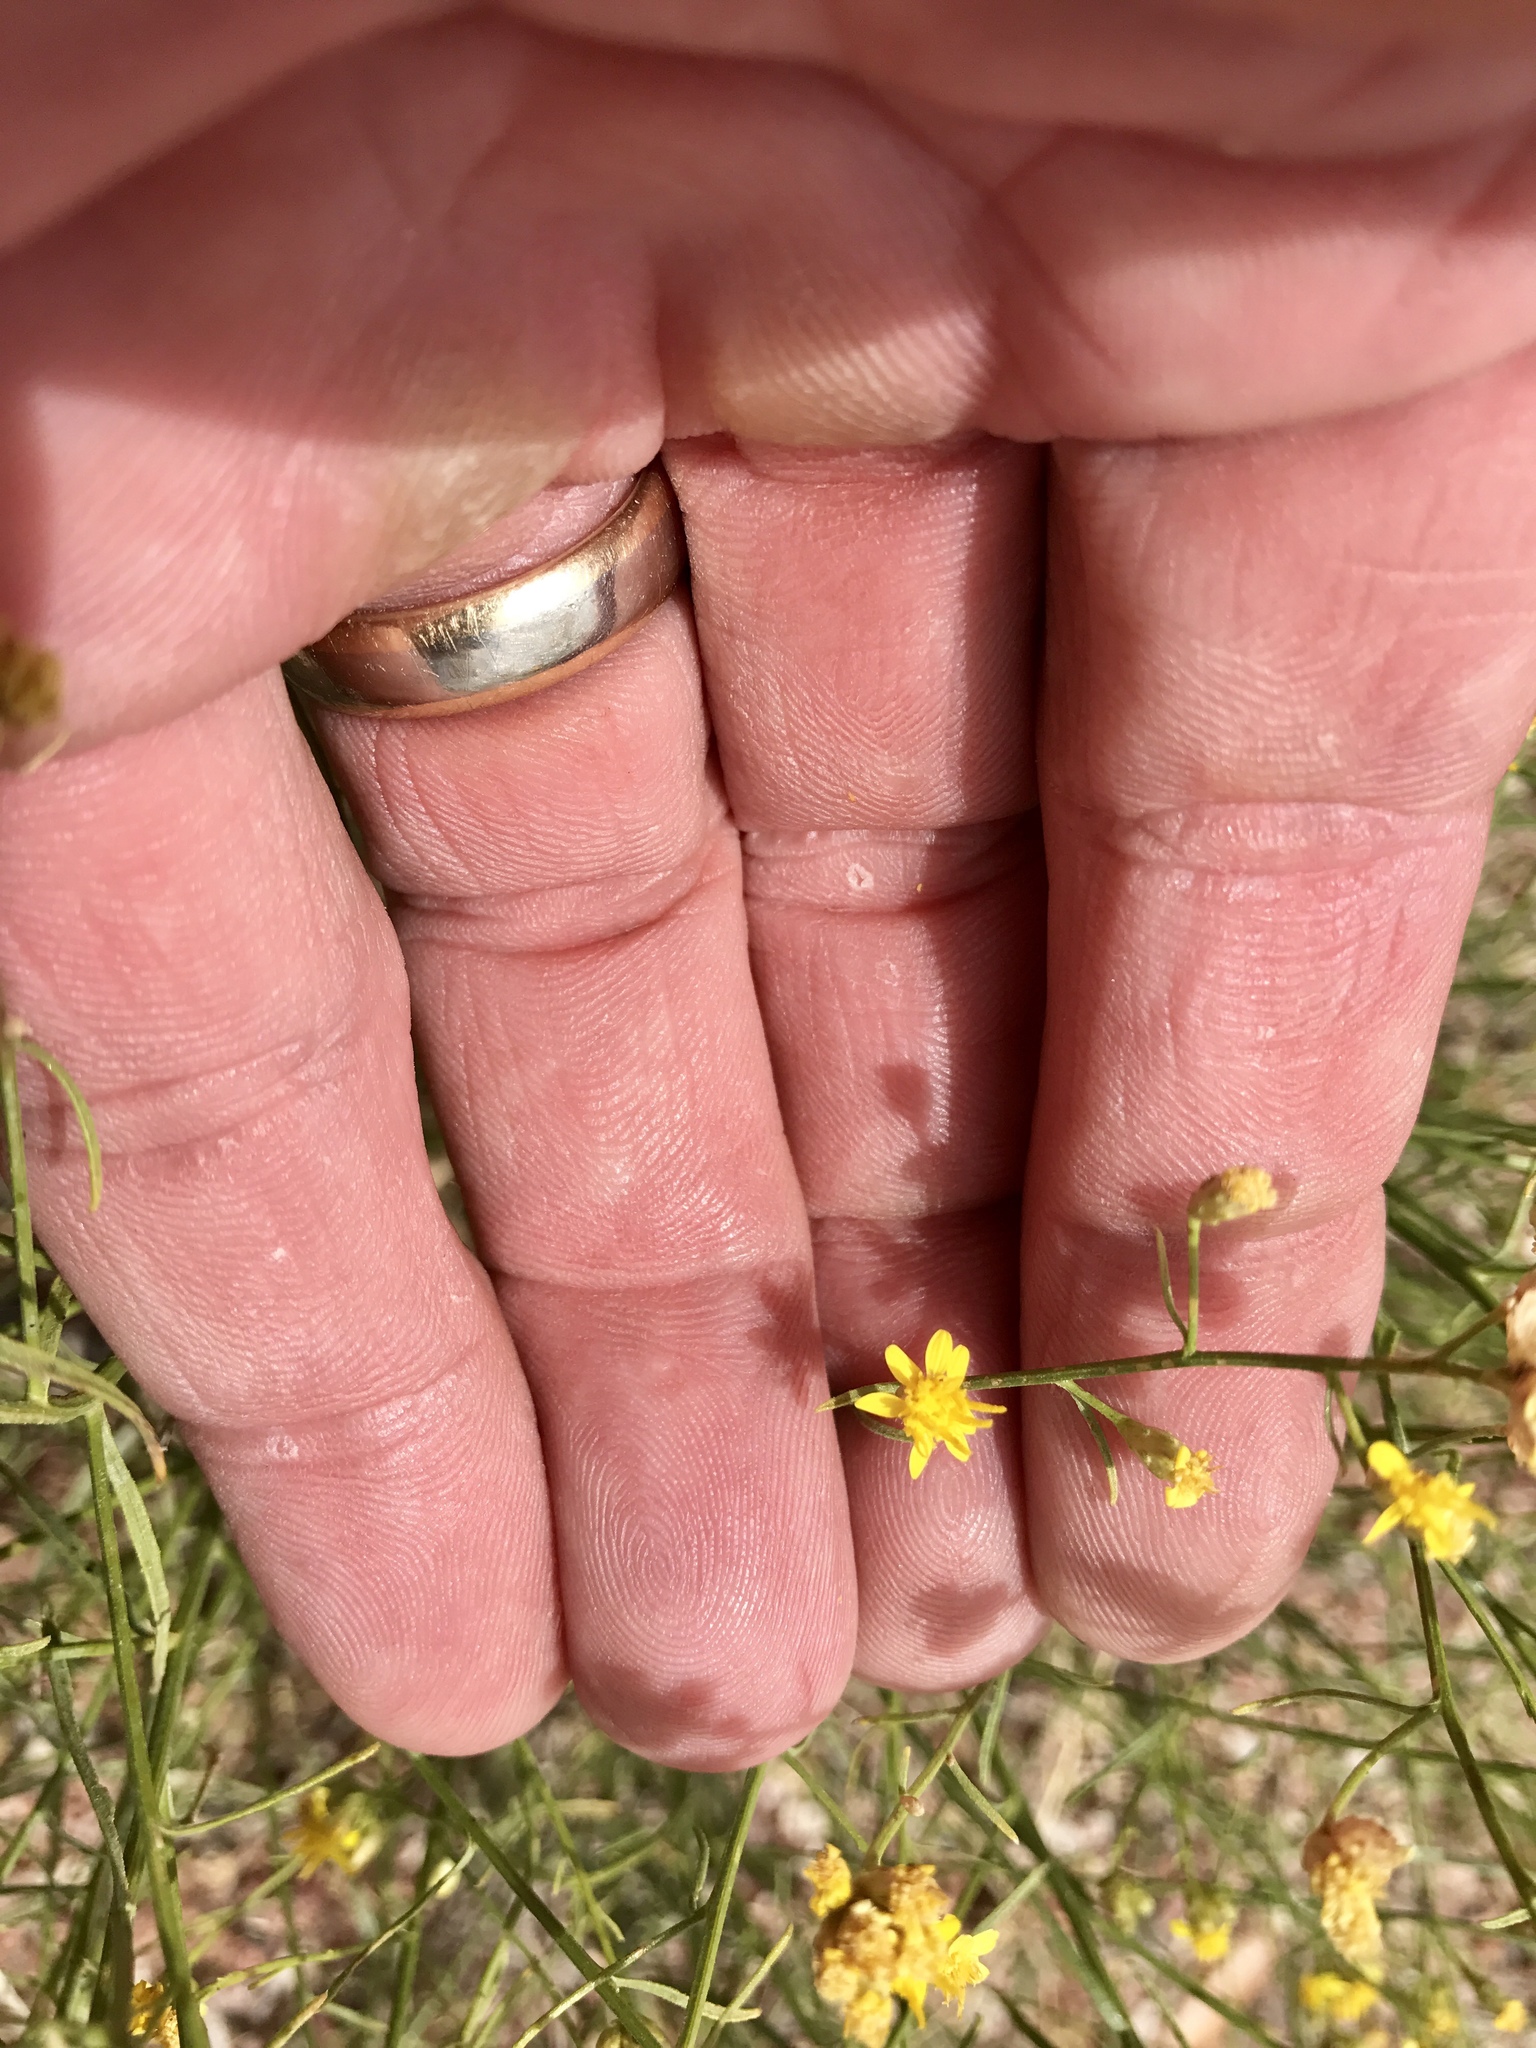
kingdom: Plantae
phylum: Tracheophyta
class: Magnoliopsida
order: Asterales
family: Asteraceae
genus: Gutierrezia
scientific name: Gutierrezia sarothrae
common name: Broom snakeweed
